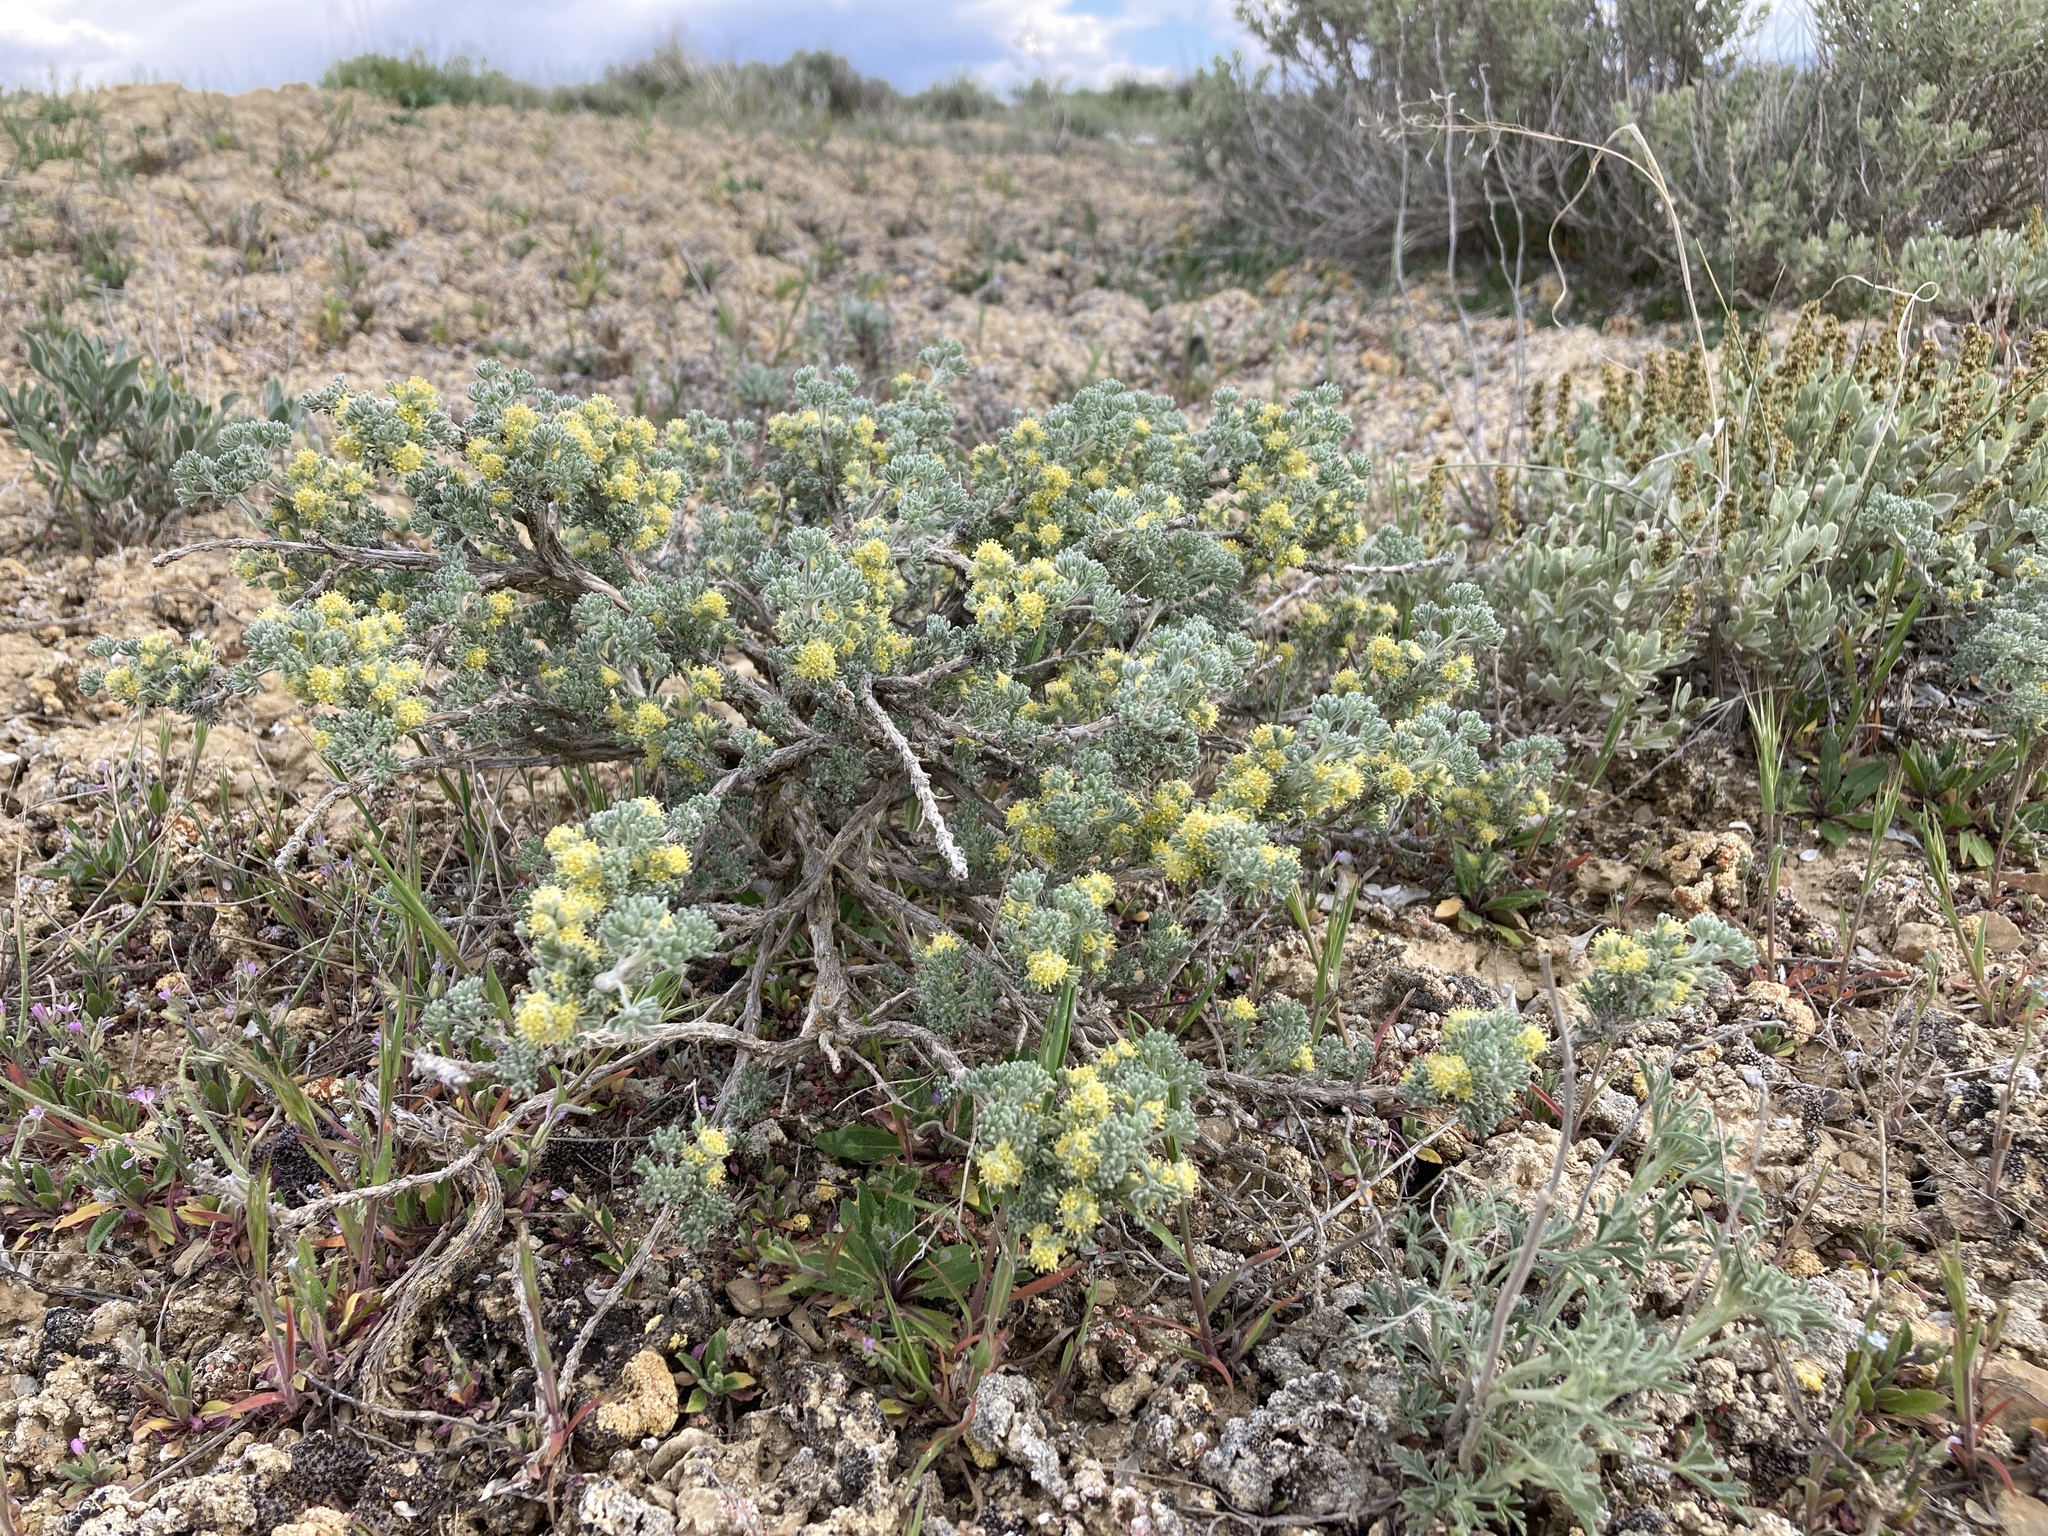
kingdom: Plantae
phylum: Tracheophyta
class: Magnoliopsida
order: Asterales
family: Asteraceae
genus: Artemisia
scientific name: Artemisia spinescens
